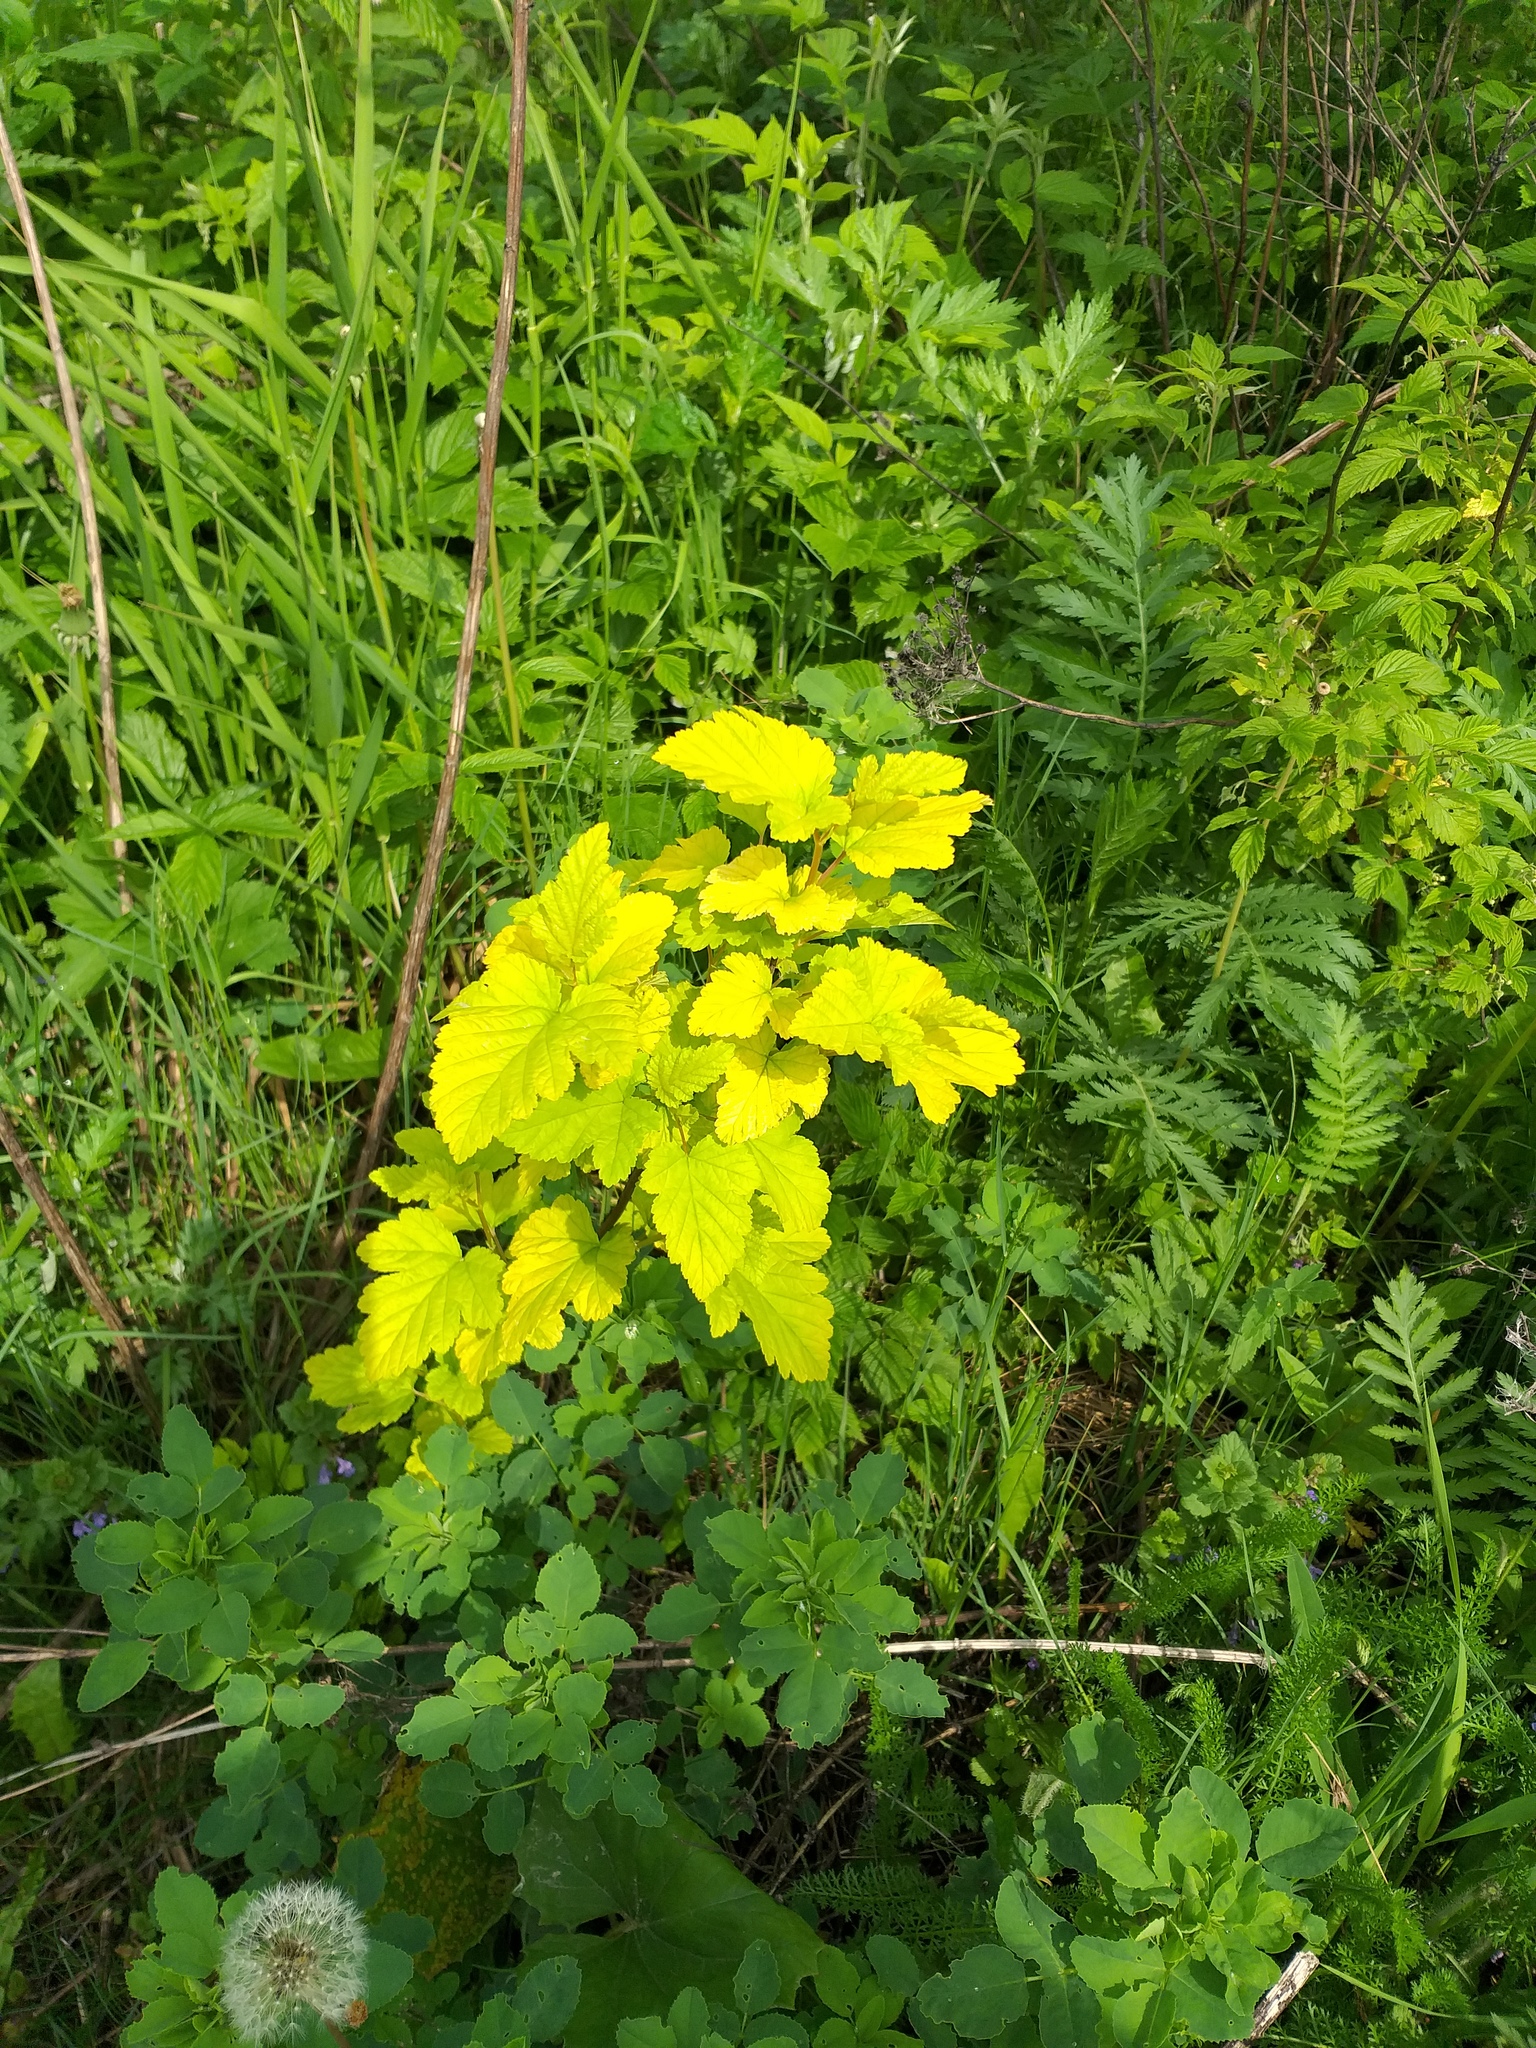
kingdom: Plantae
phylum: Tracheophyta
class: Magnoliopsida
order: Rosales
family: Rosaceae
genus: Physocarpus
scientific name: Physocarpus opulifolius
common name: Ninebark
